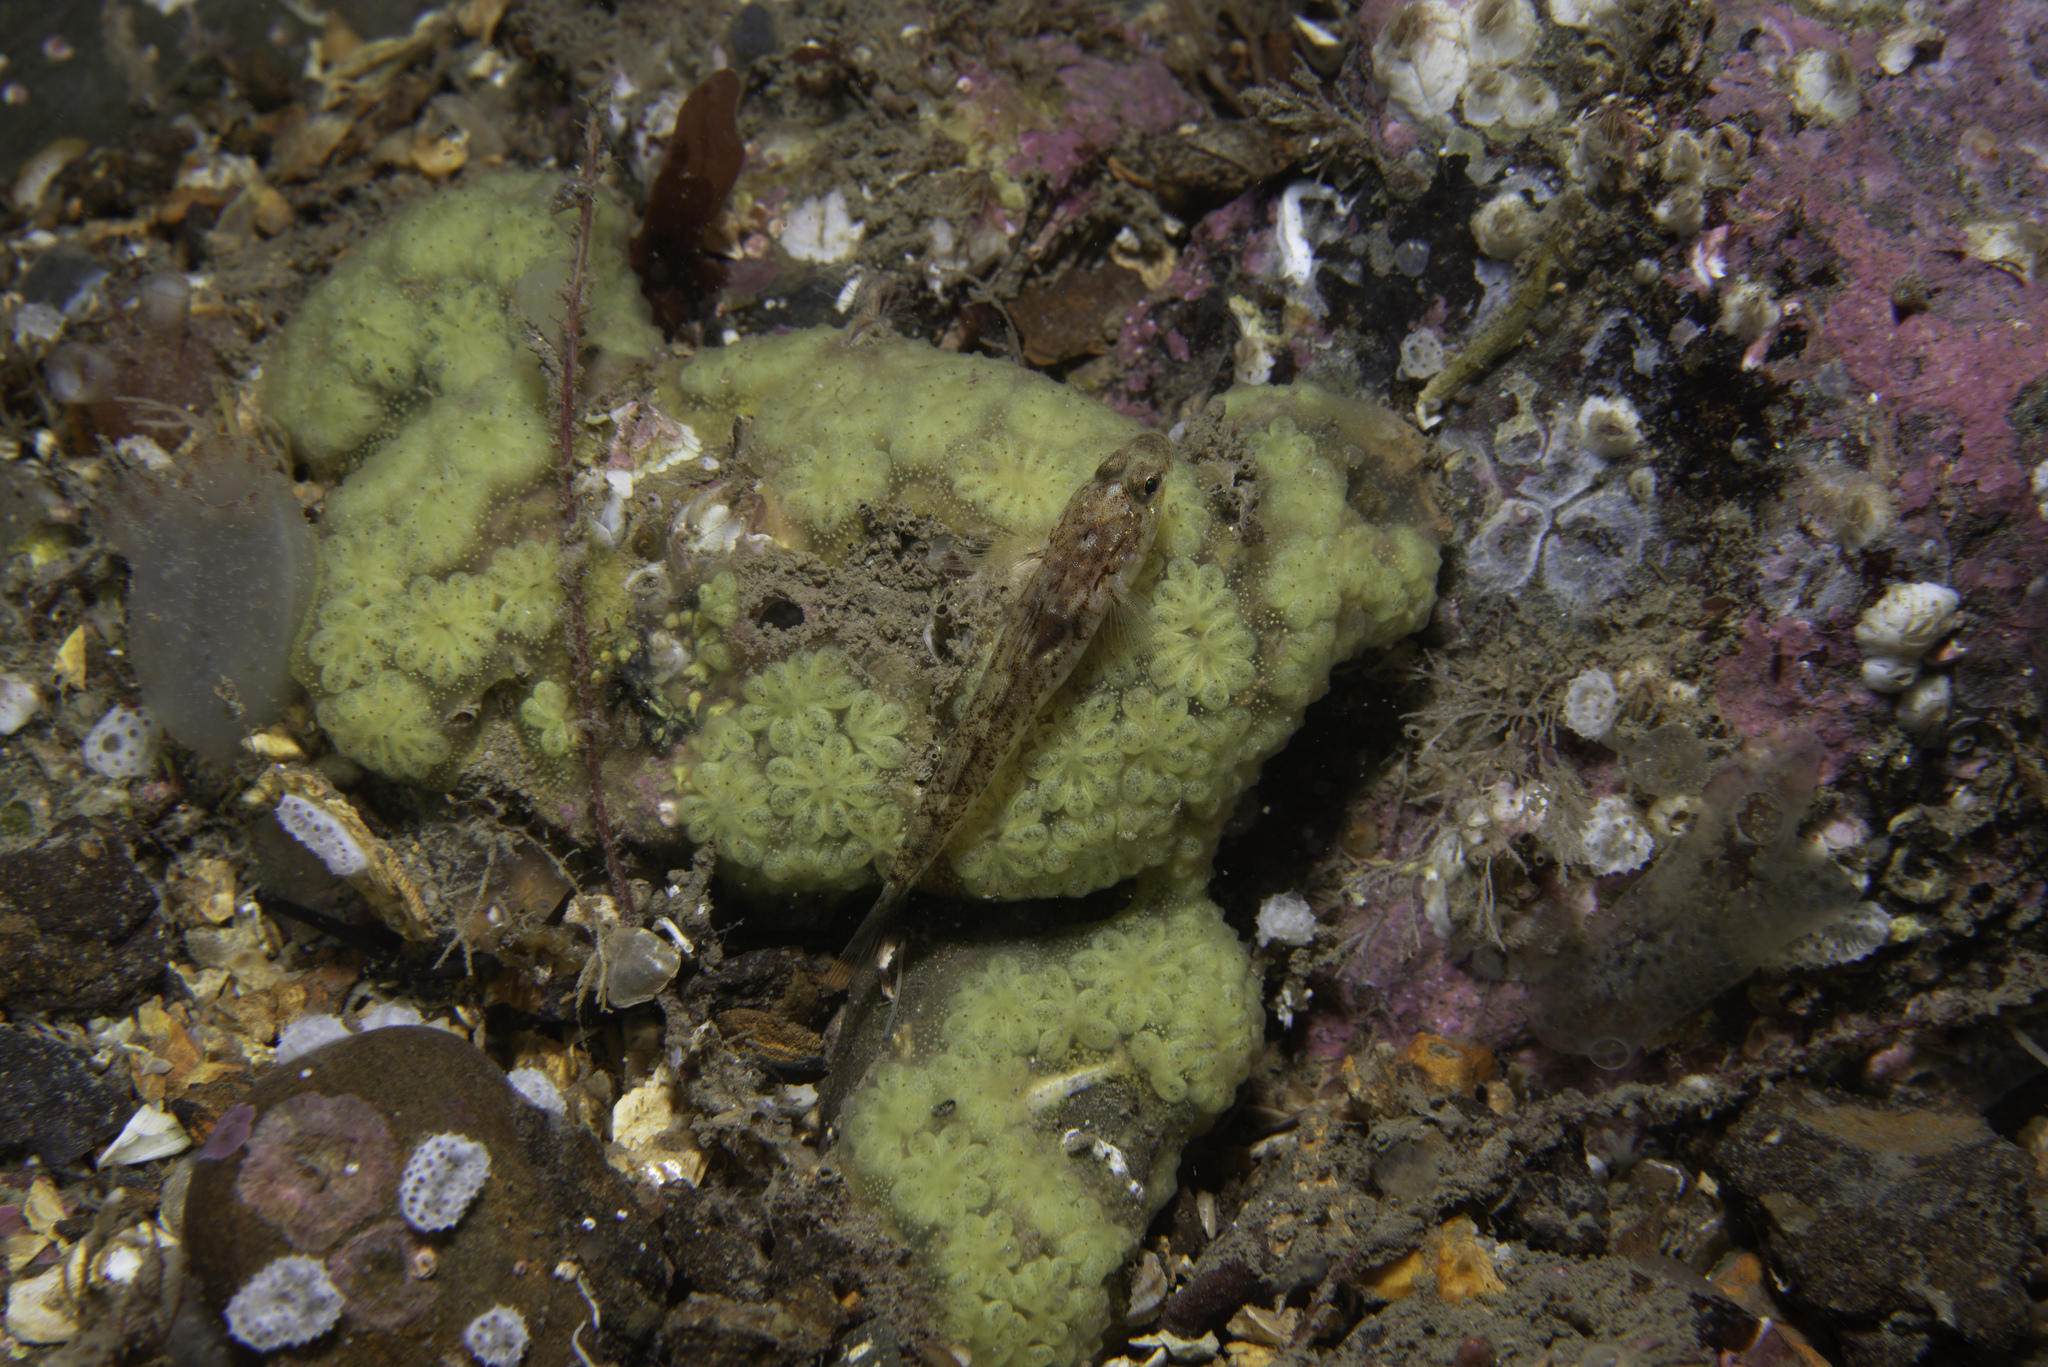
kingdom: Animalia
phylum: Chordata
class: Ascidiacea
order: Stolidobranchia
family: Styelidae
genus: Botryllus
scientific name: Botryllus schlosseri
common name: Golden star tunicate
